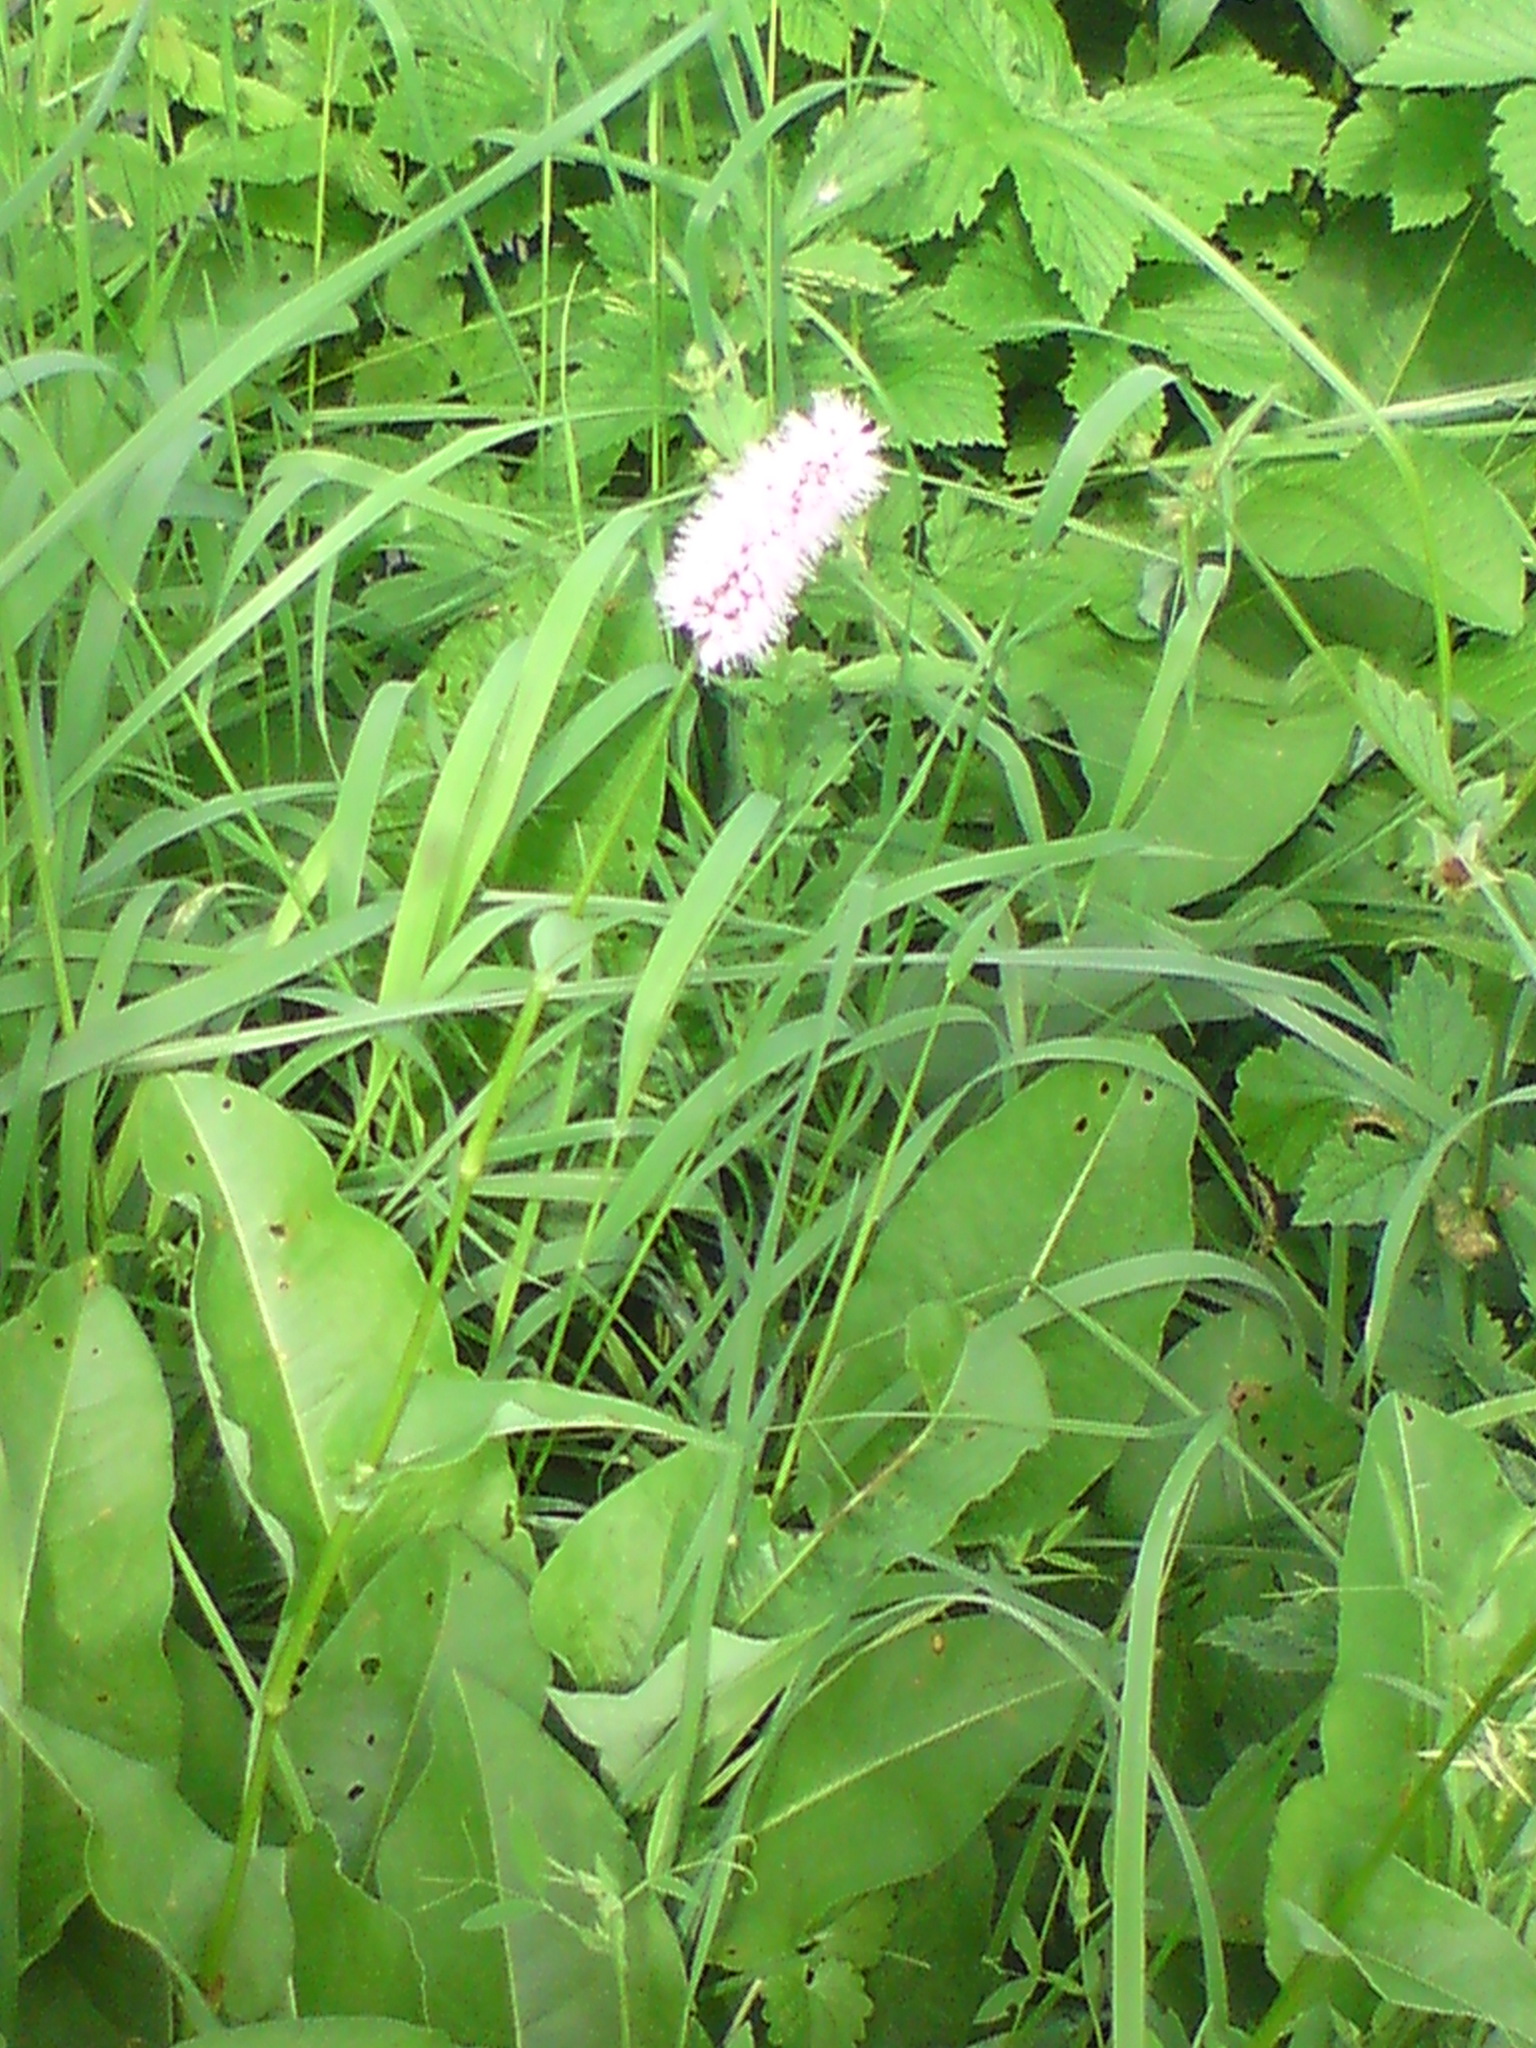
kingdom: Plantae
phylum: Tracheophyta
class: Magnoliopsida
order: Caryophyllales
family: Polygonaceae
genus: Bistorta
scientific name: Bistorta officinalis
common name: Common bistort
